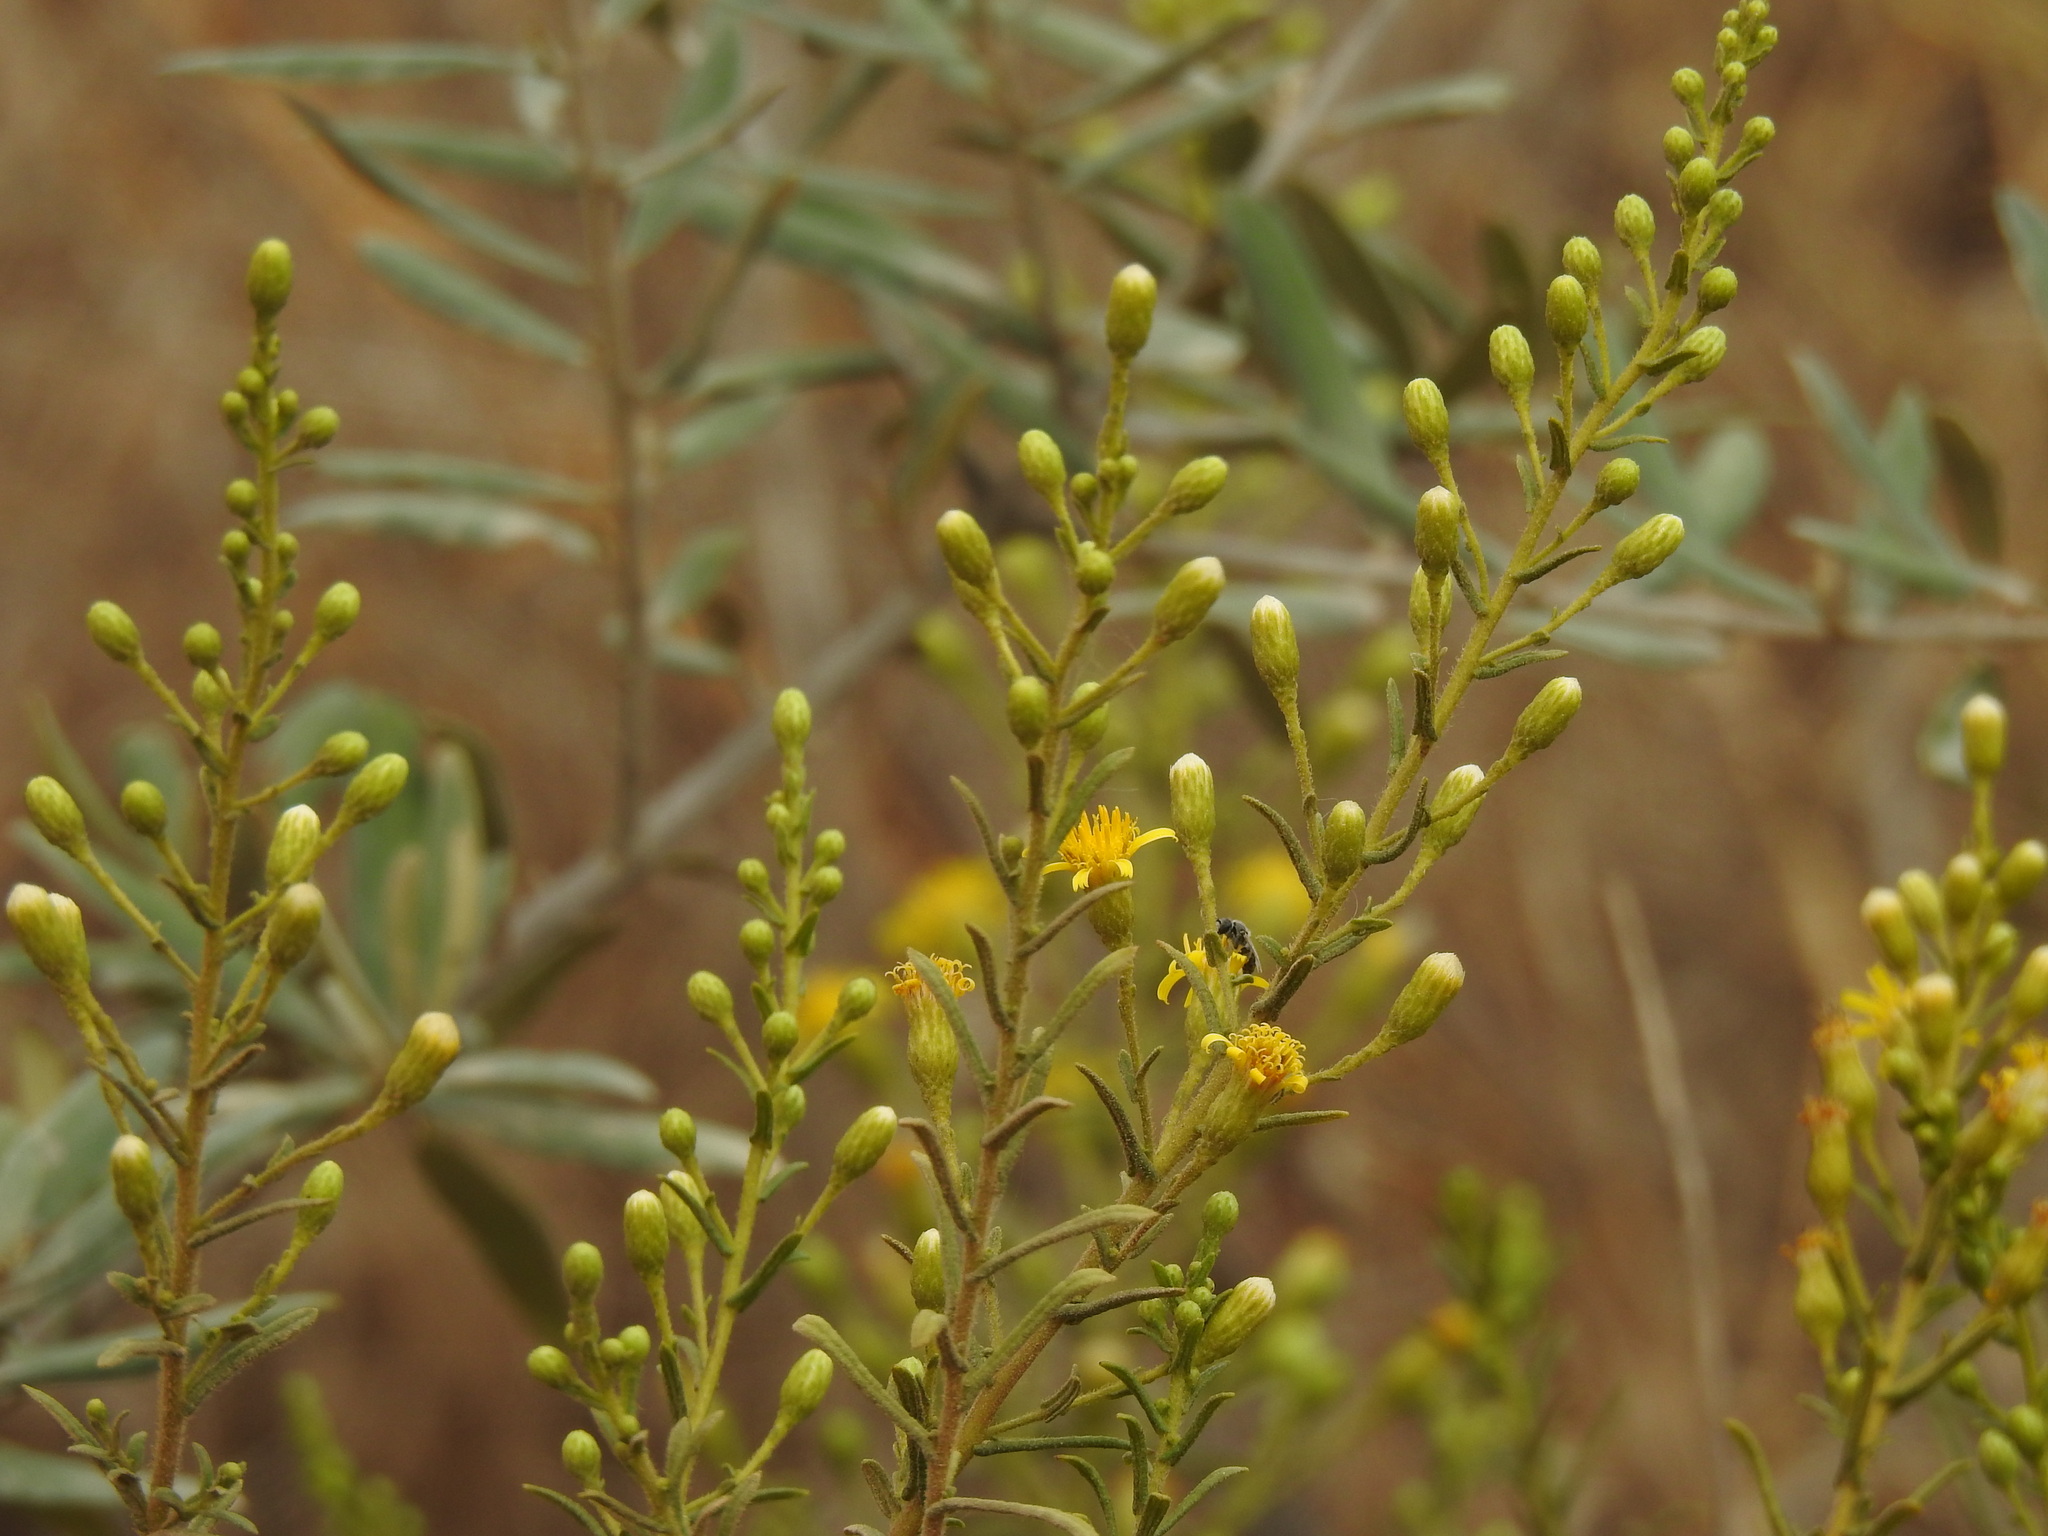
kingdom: Plantae
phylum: Tracheophyta
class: Magnoliopsida
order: Asterales
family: Asteraceae
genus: Dittrichia
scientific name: Dittrichia viscosa
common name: Woody fleabane
